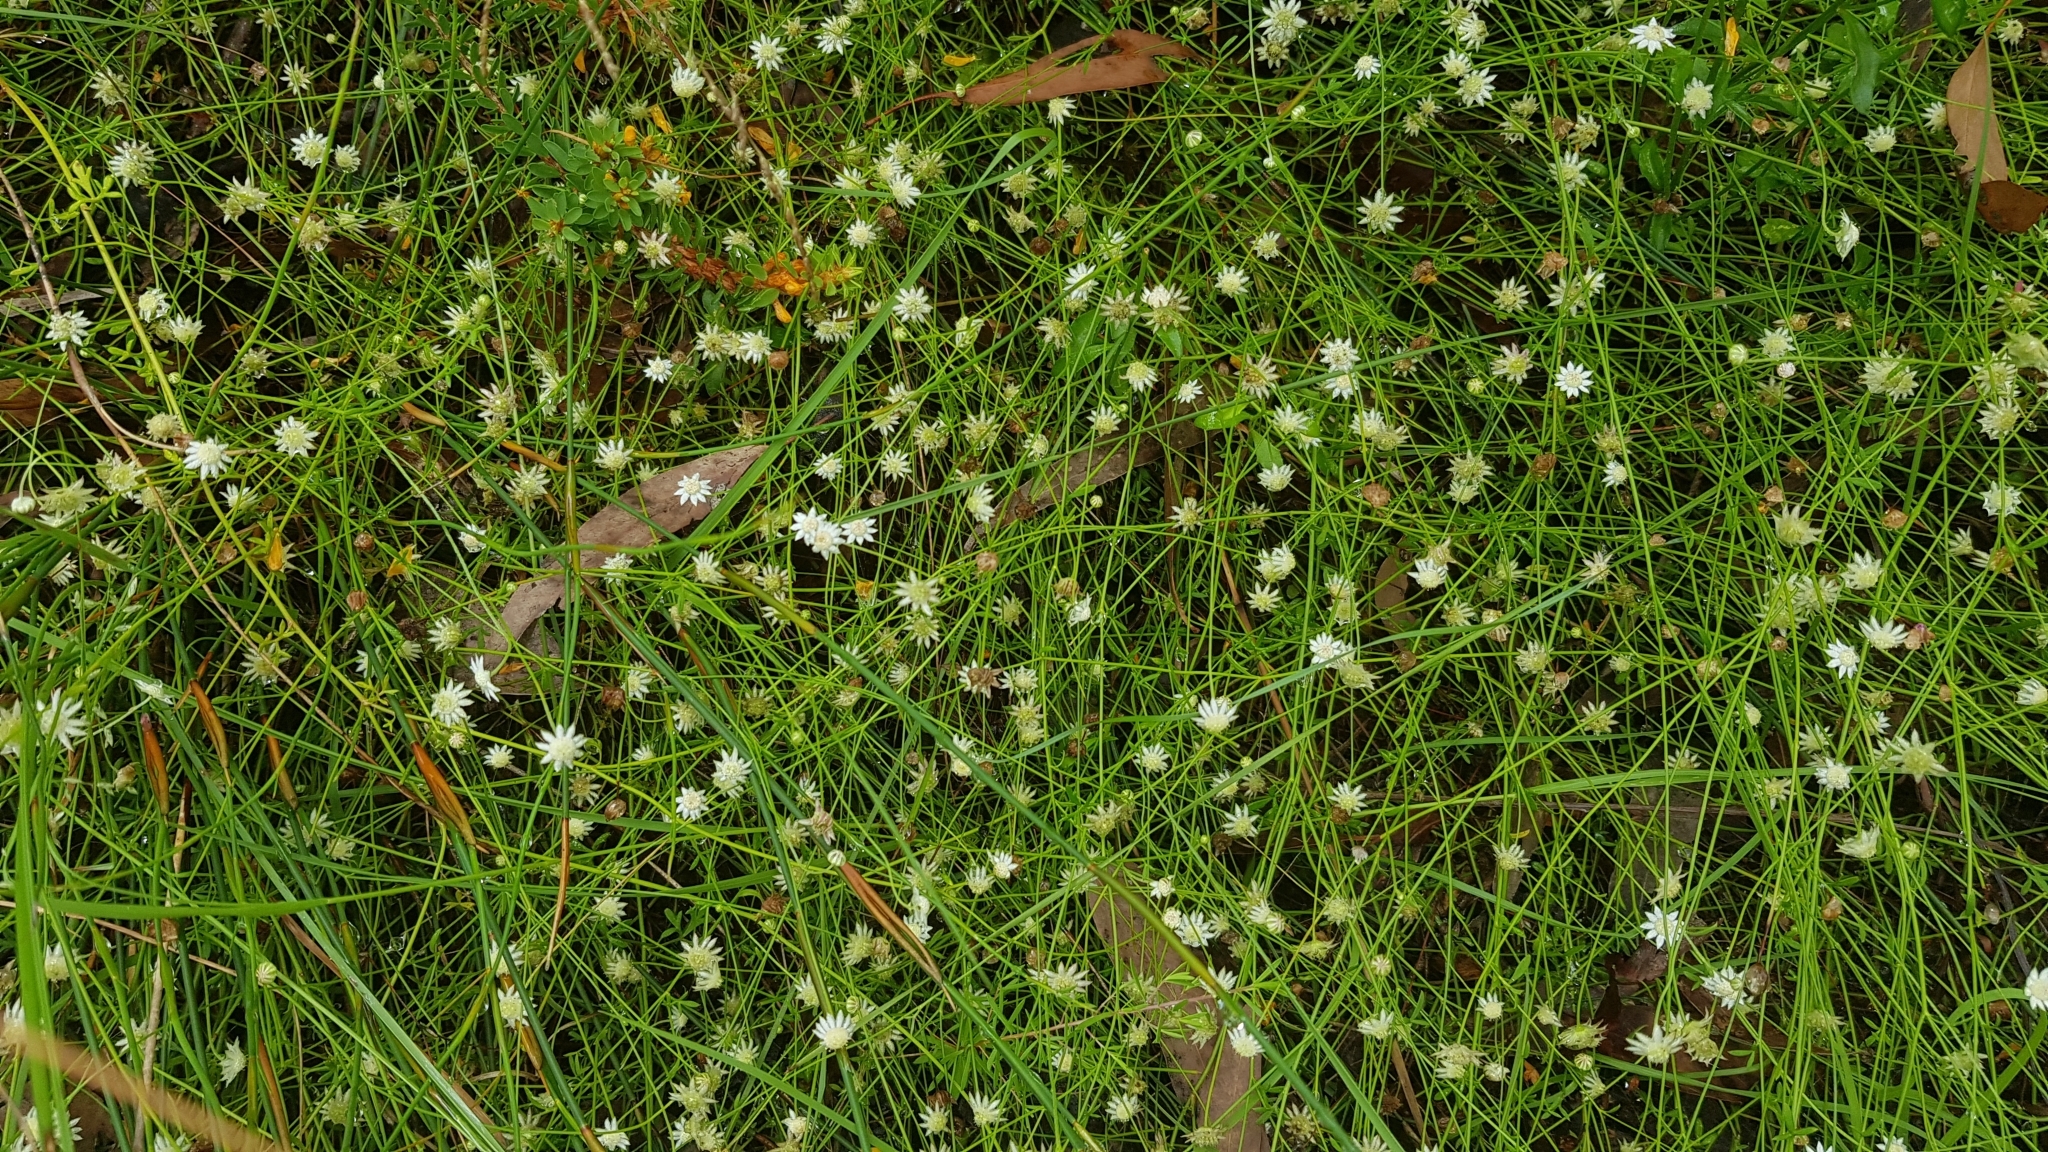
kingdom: Plantae
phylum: Tracheophyta
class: Magnoliopsida
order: Apiales
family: Apiaceae
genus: Actinotus
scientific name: Actinotus minor
